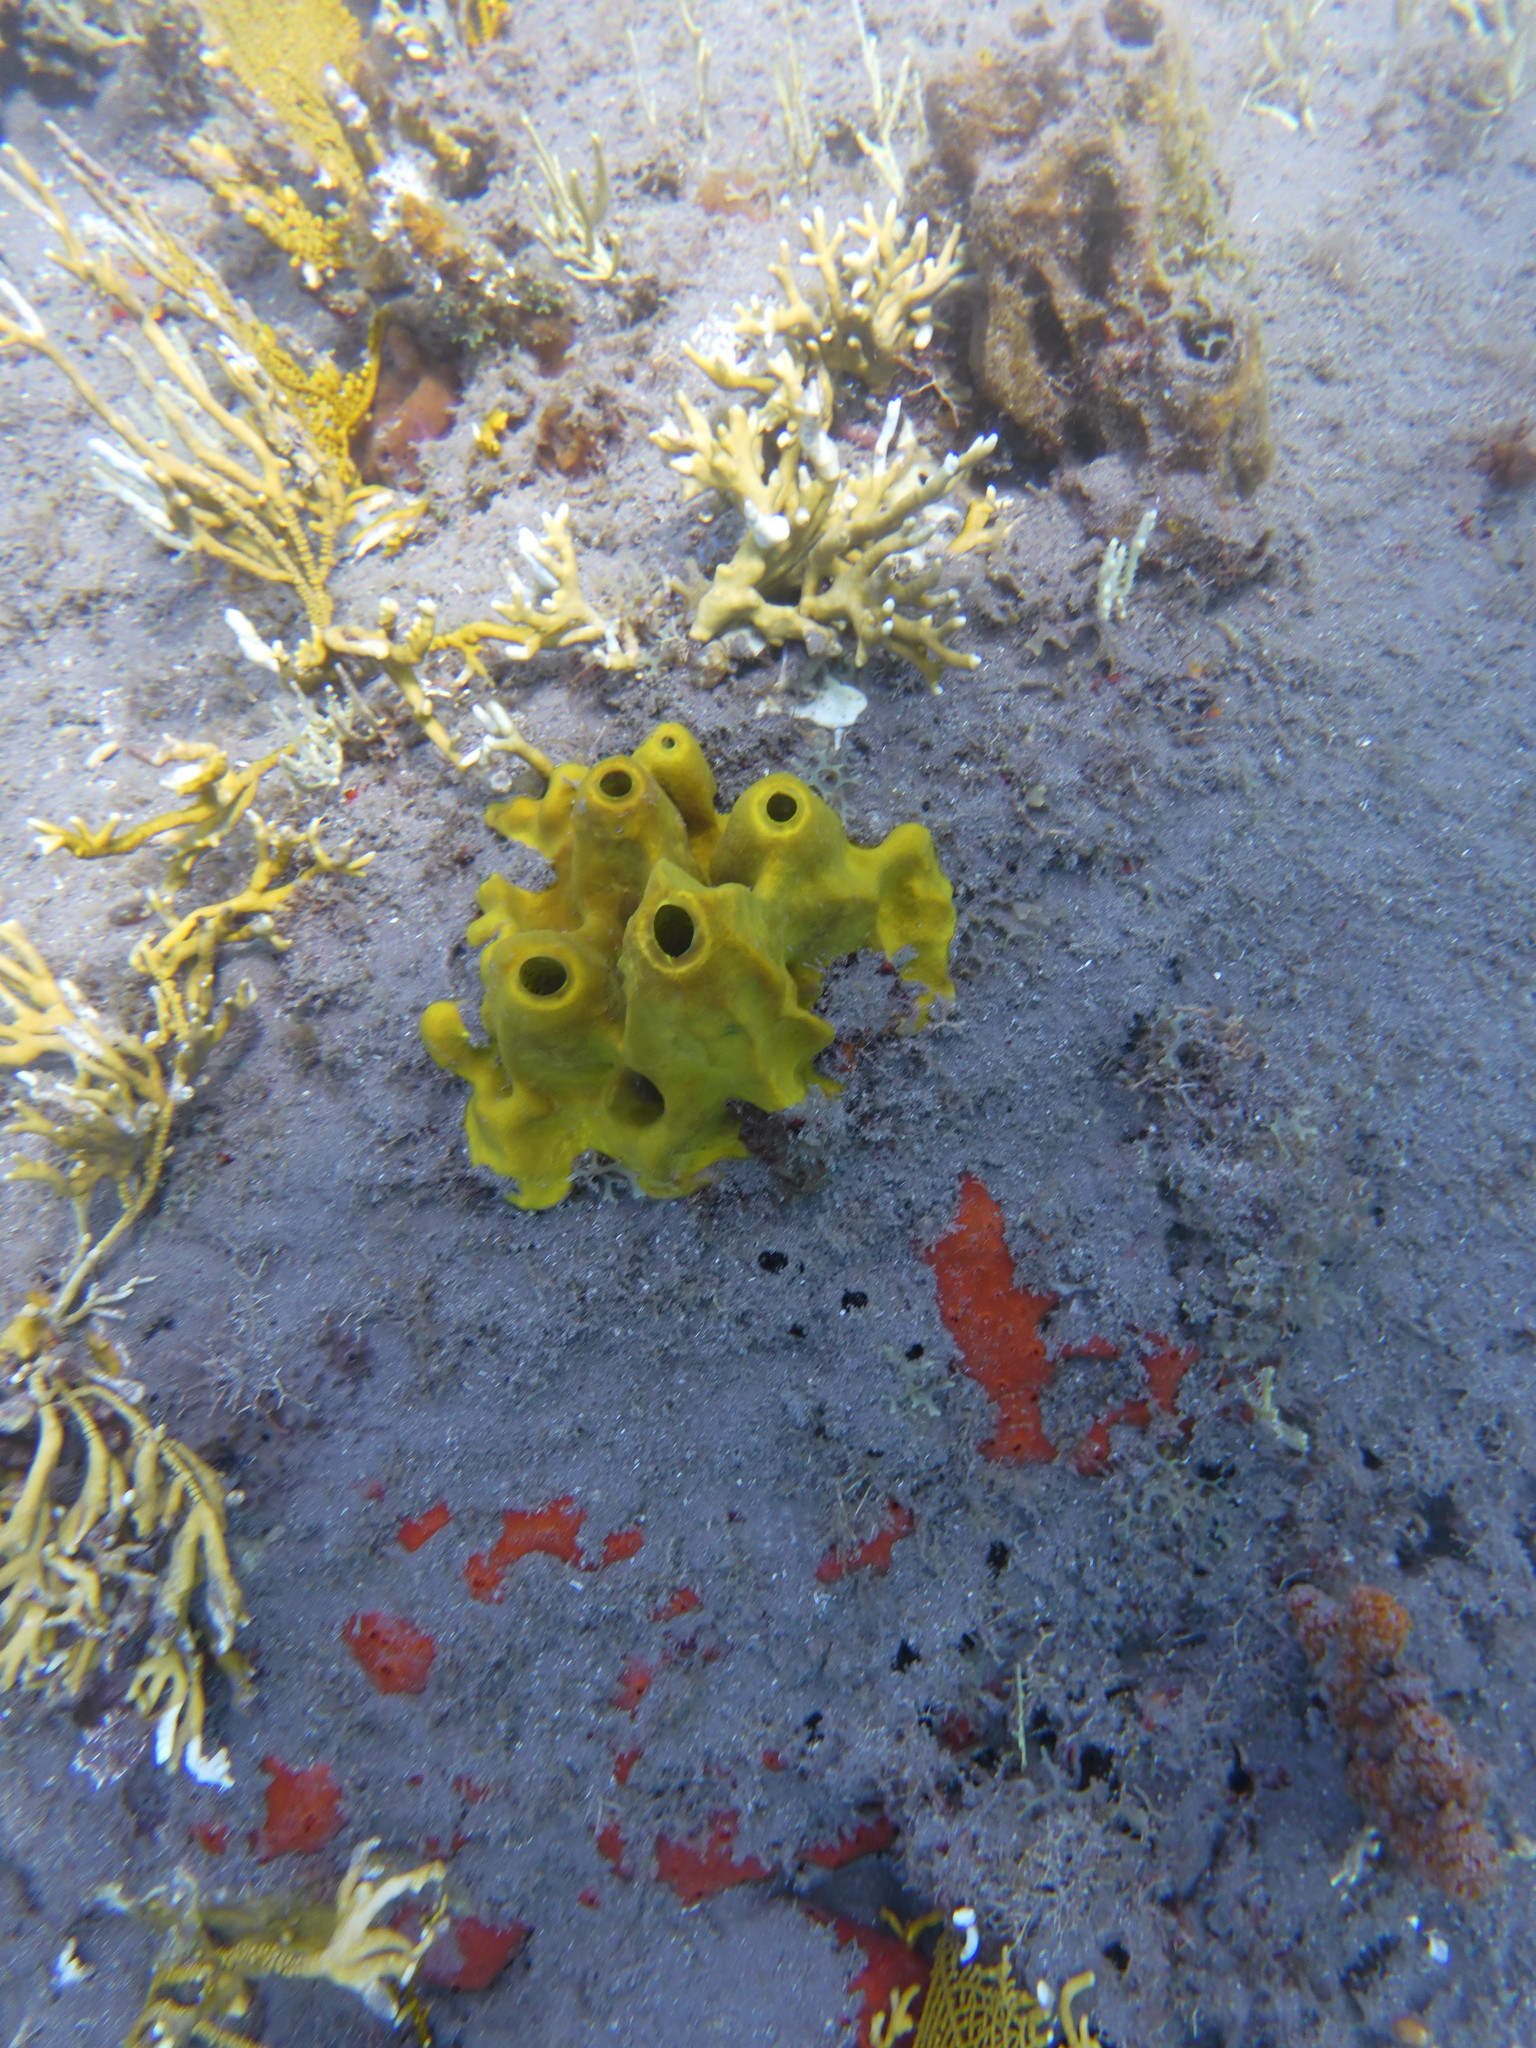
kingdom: Animalia
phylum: Porifera
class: Demospongiae
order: Verongiida
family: Aplysinidae
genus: Aplysina
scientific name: Aplysina fistularis
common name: Candle sponge
